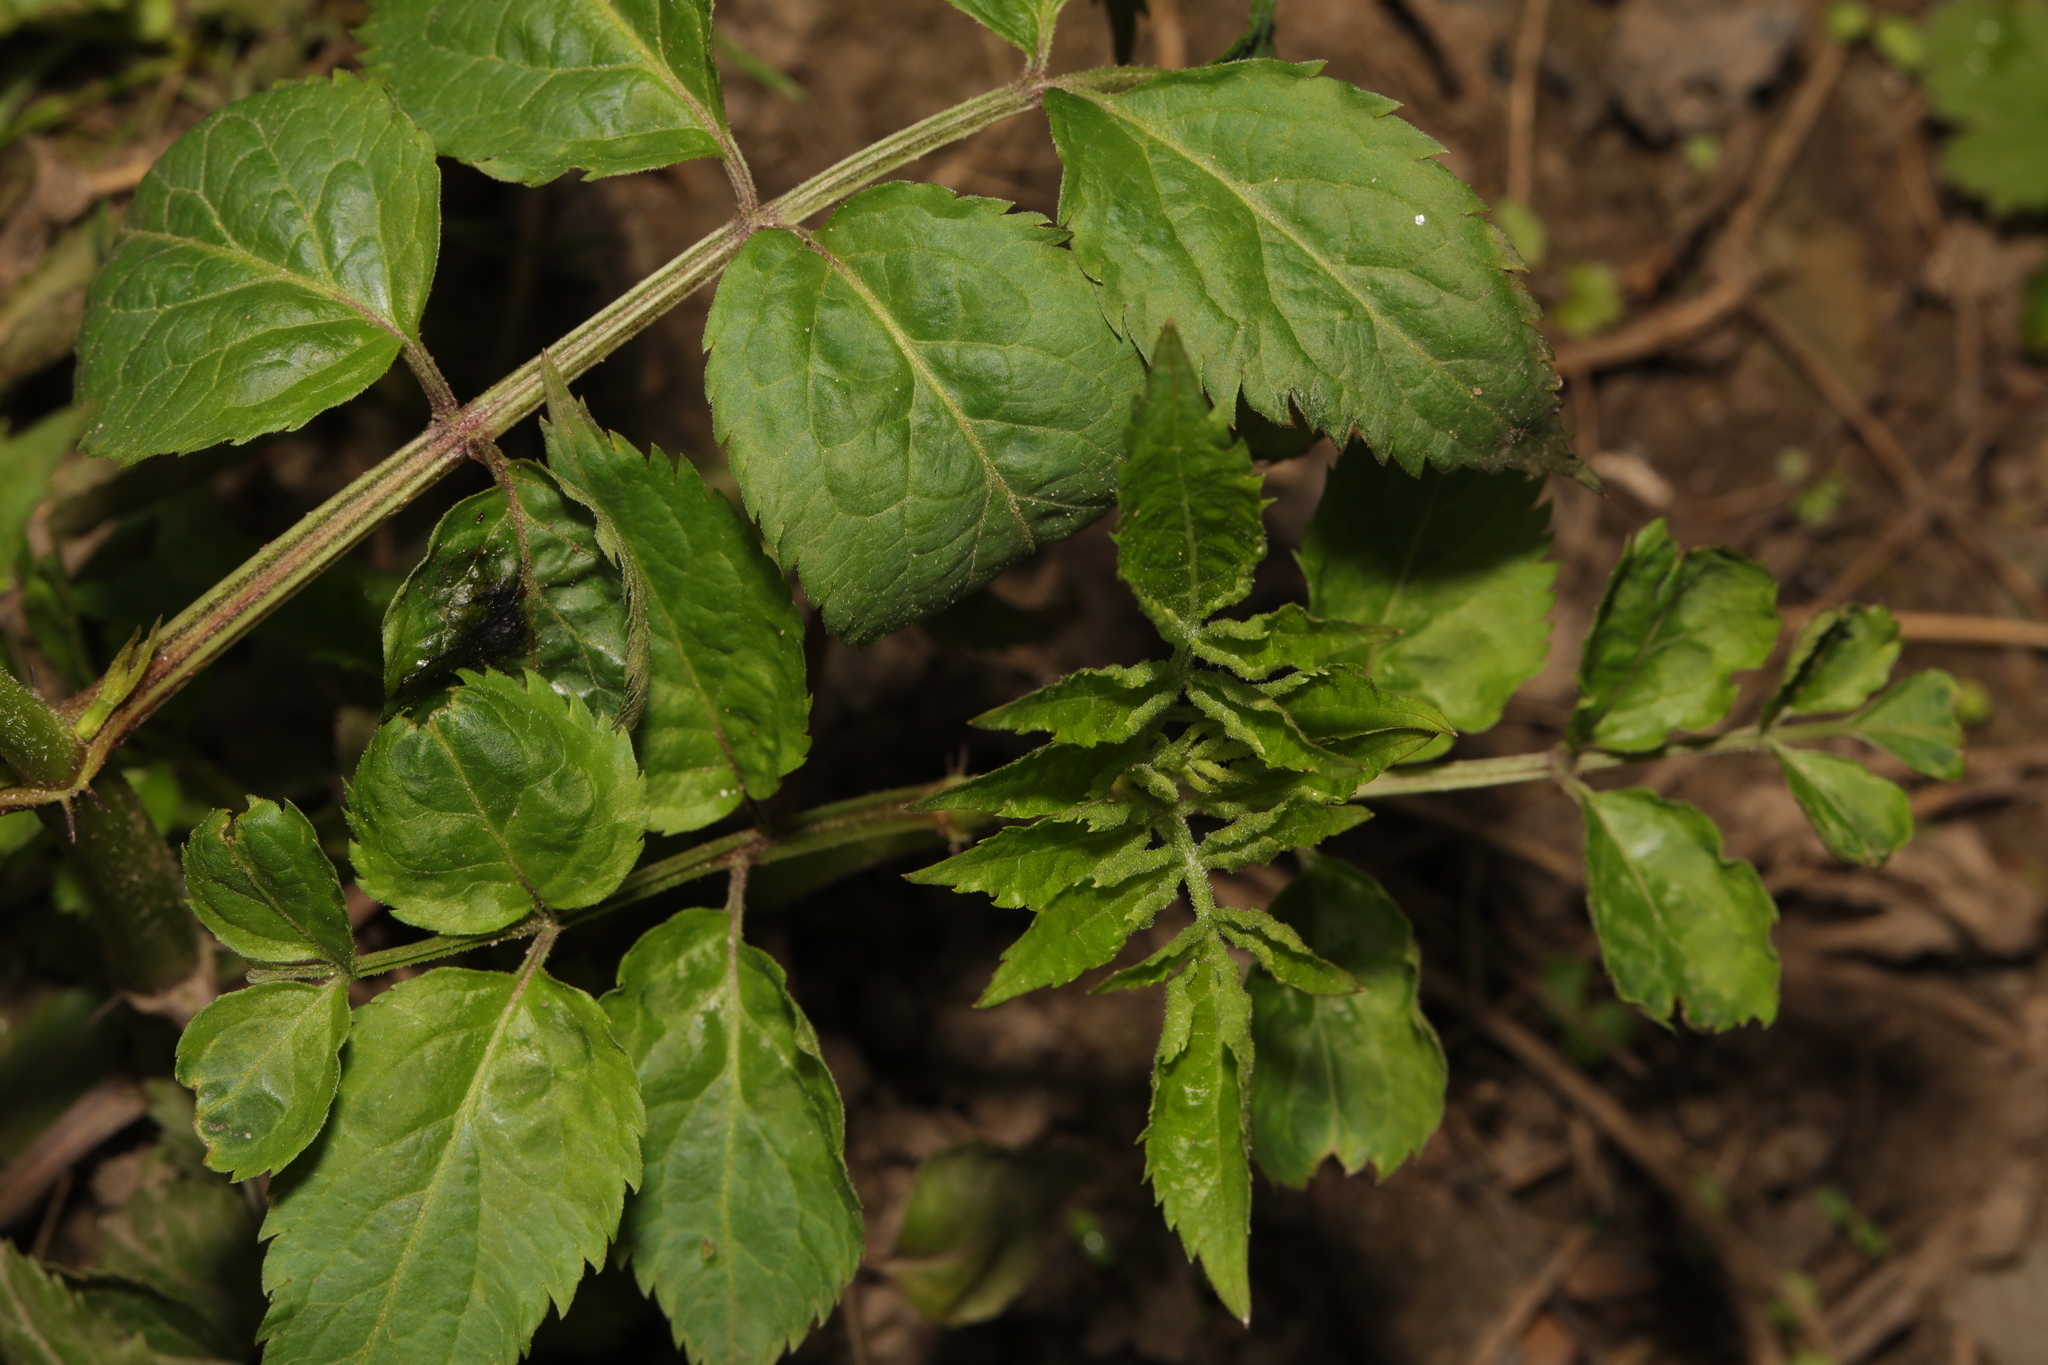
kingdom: Plantae
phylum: Tracheophyta
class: Magnoliopsida
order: Dipsacales
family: Viburnaceae
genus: Sambucus
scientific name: Sambucus nigra
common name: Elder
